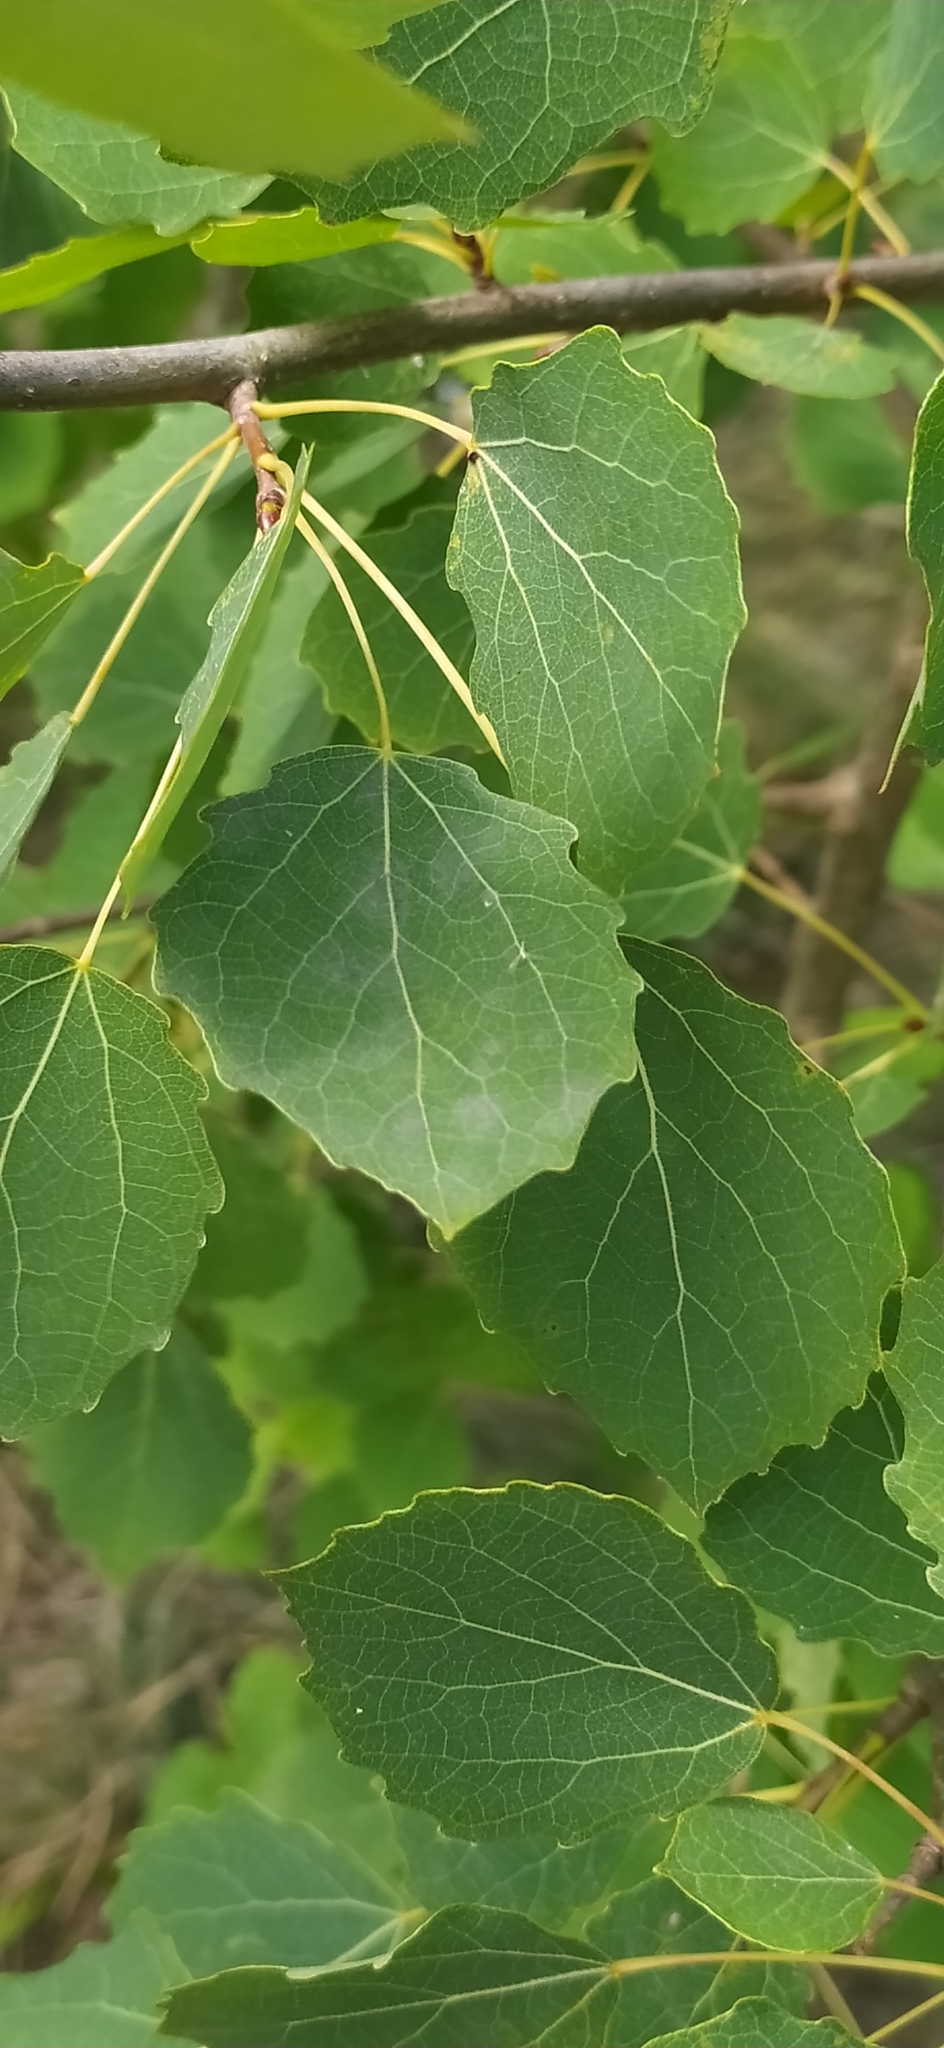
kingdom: Plantae
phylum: Tracheophyta
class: Magnoliopsida
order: Malpighiales
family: Salicaceae
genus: Populus
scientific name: Populus tremula
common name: European aspen
